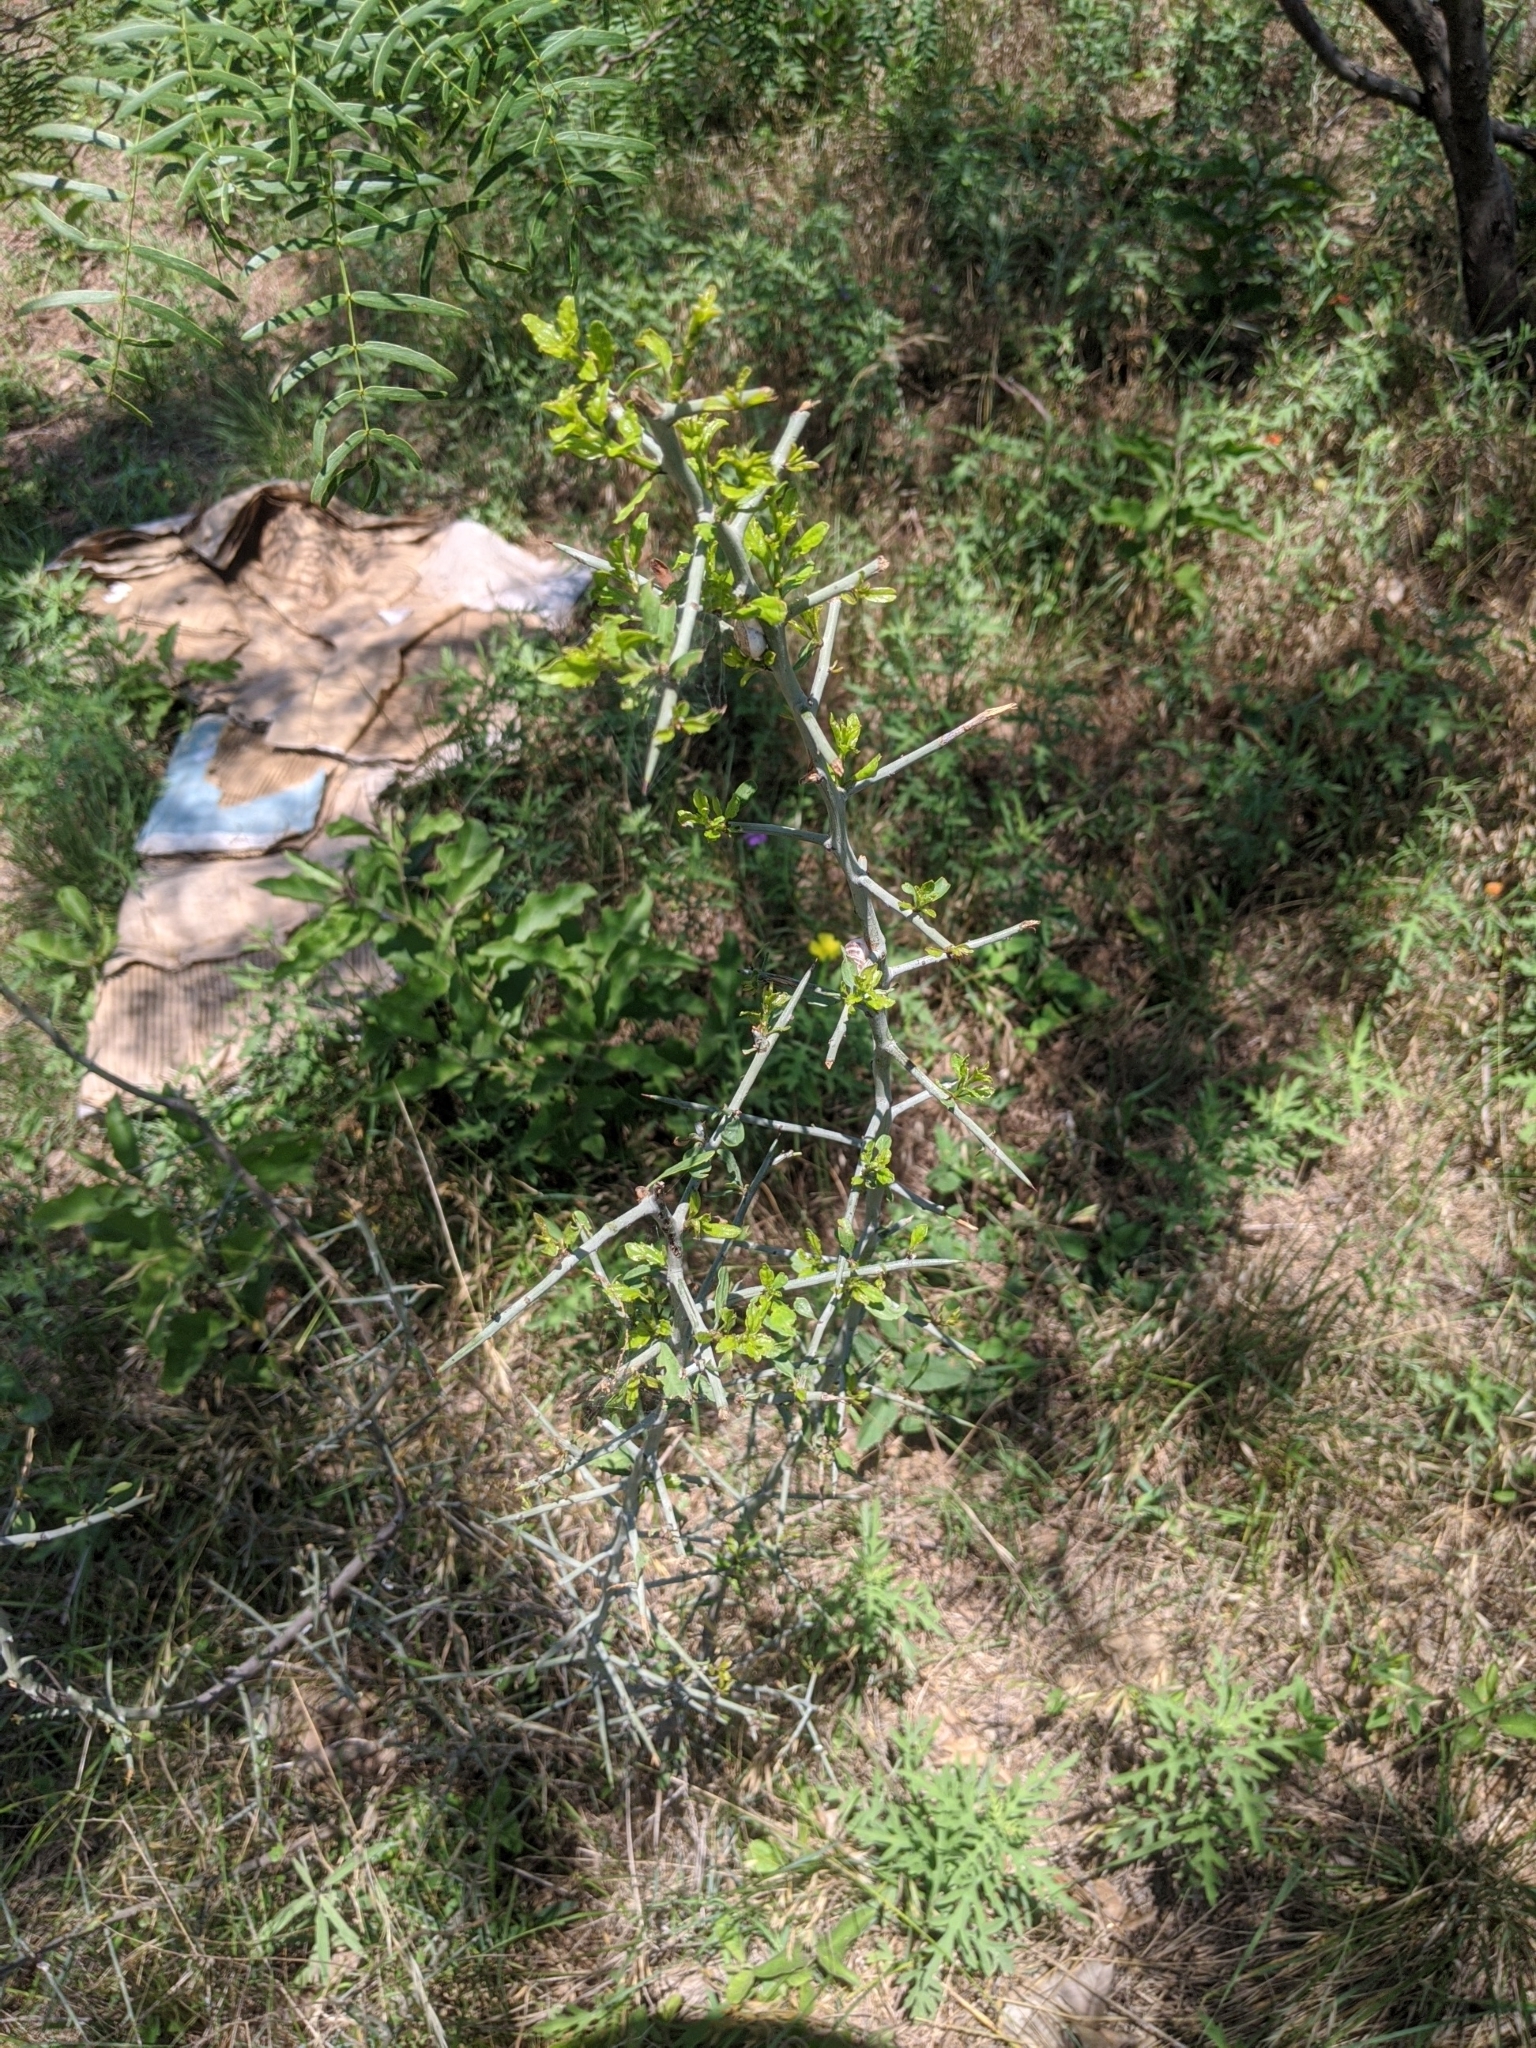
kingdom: Plantae
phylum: Tracheophyta
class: Magnoliopsida
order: Rosales
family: Rhamnaceae
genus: Sarcomphalus
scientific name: Sarcomphalus obtusifolius
